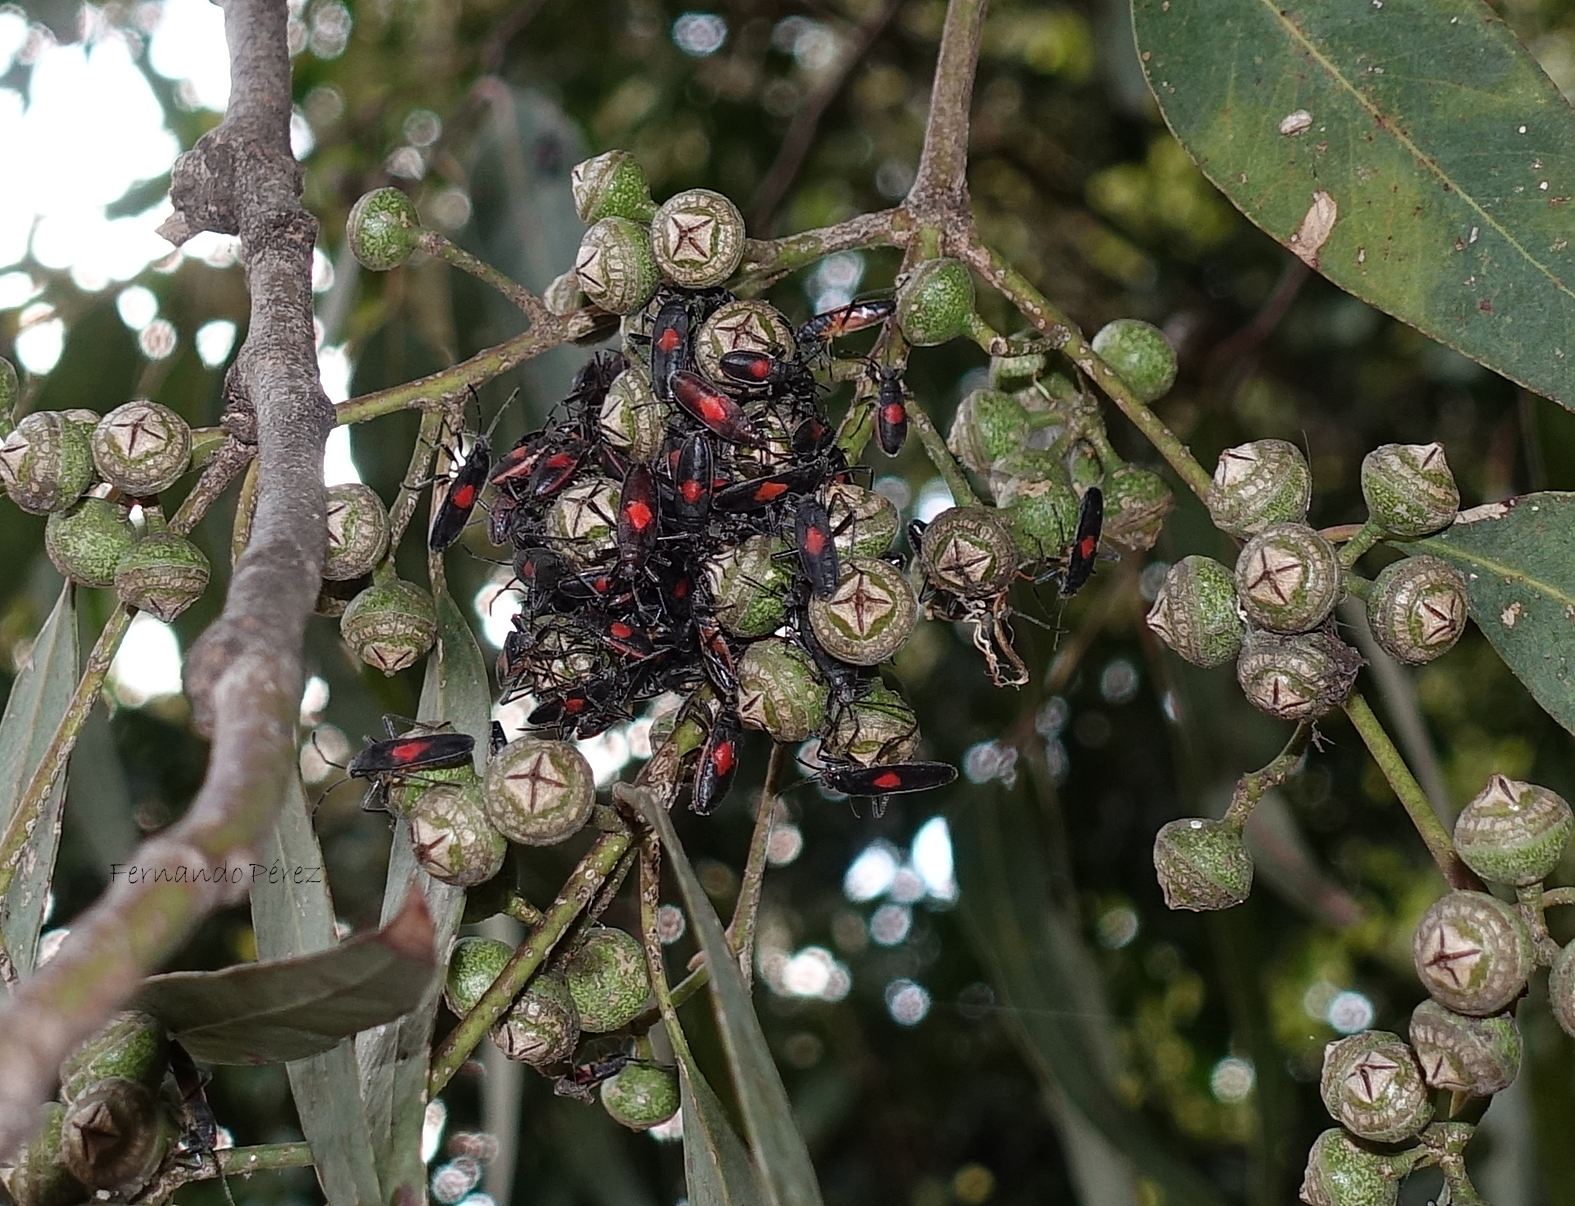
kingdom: Animalia
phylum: Arthropoda
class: Insecta
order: Hemiptera
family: Largidae
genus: Stenomacra
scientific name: Stenomacra marginella
